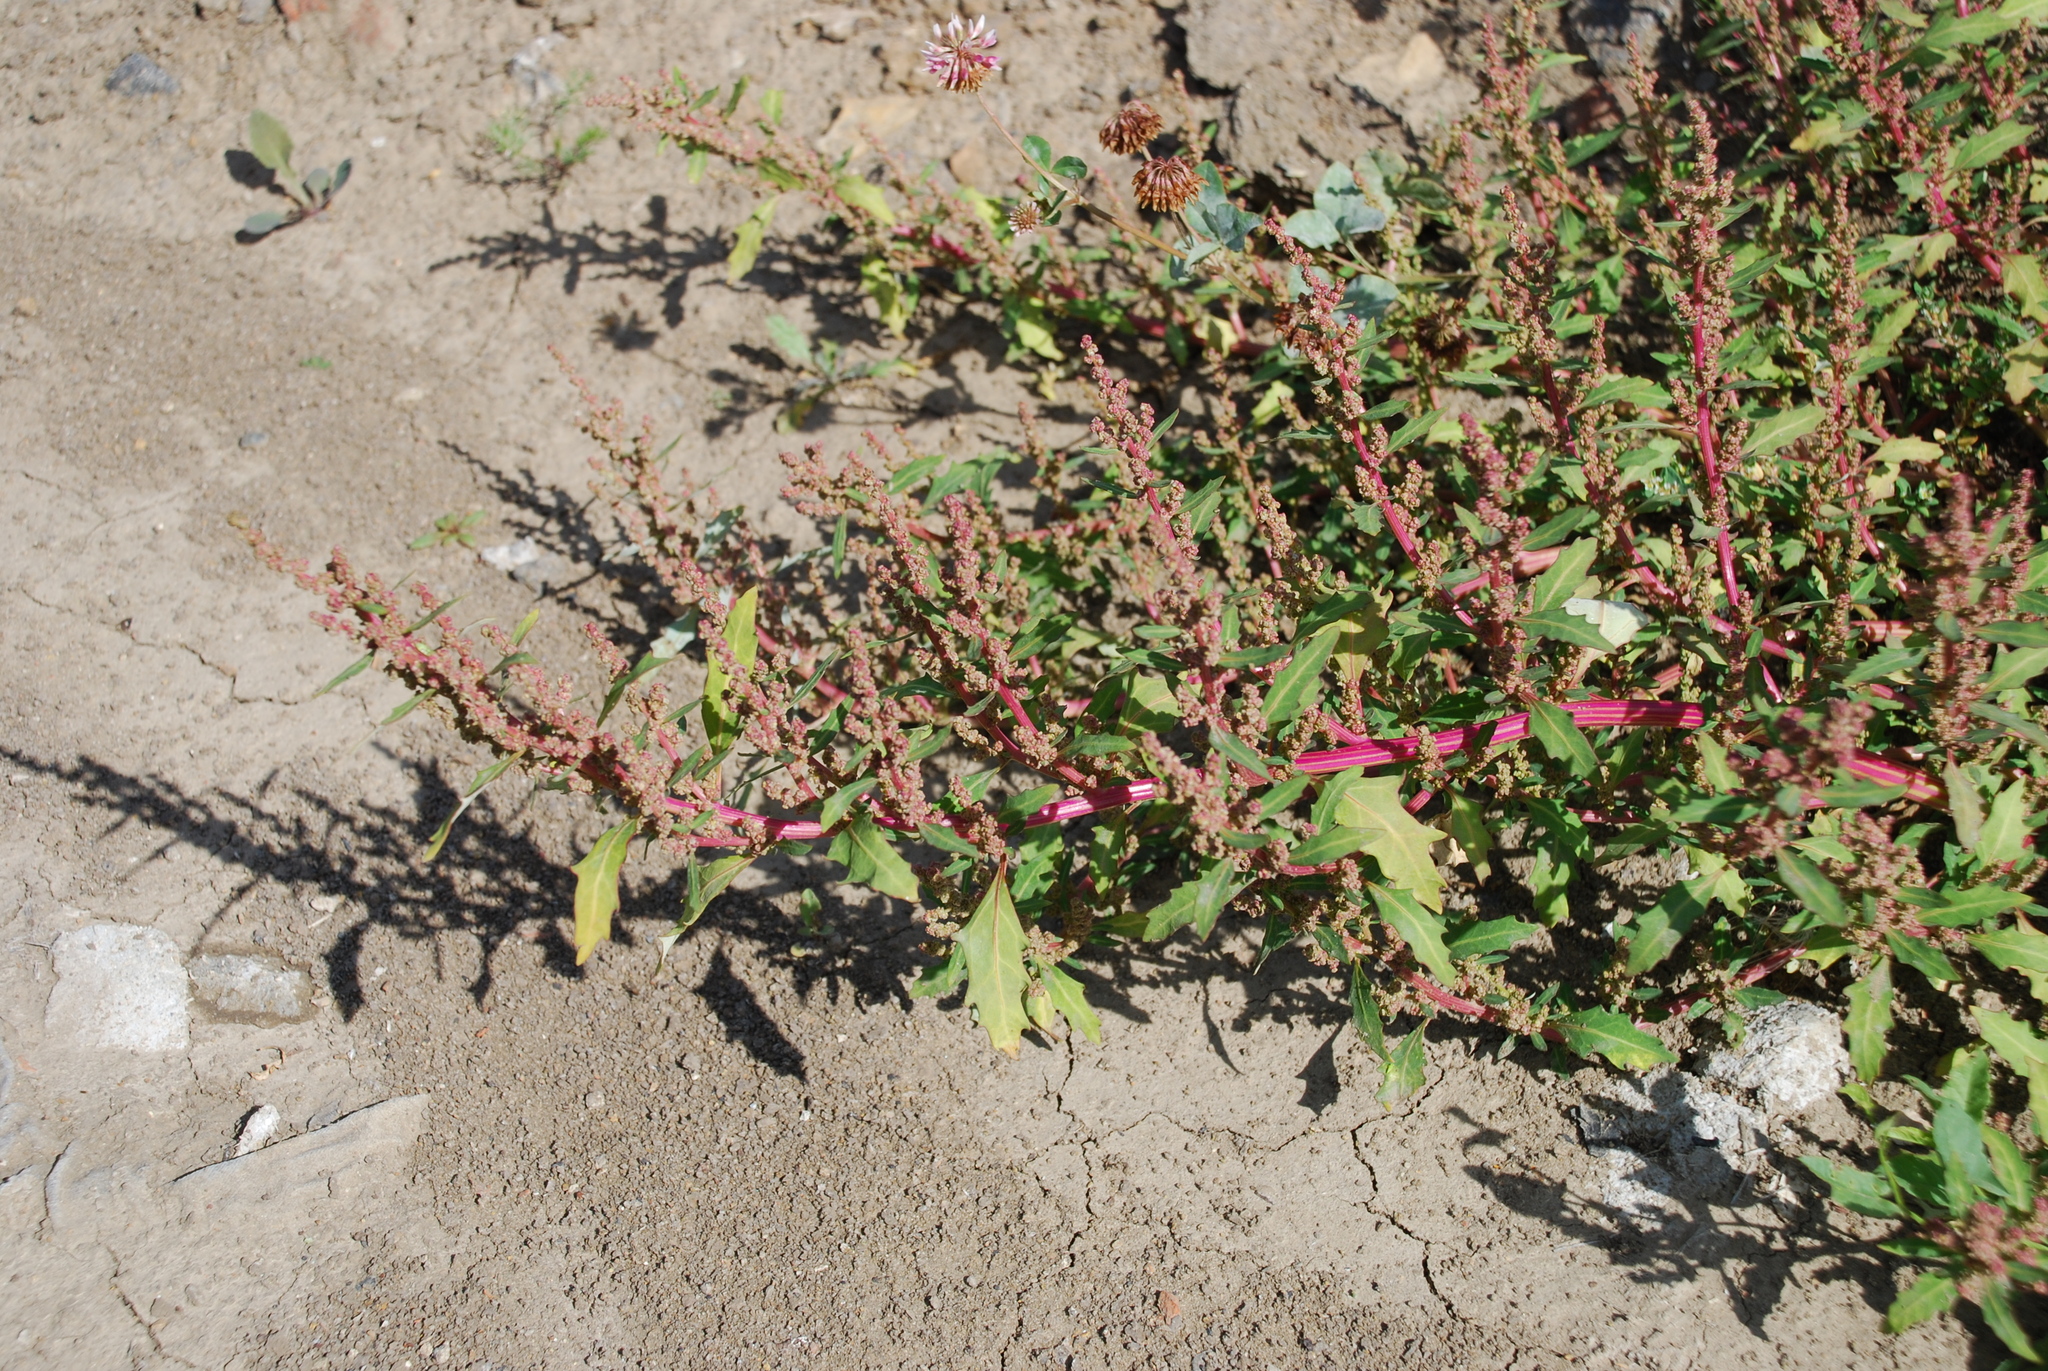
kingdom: Plantae
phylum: Tracheophyta
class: Magnoliopsida
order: Caryophyllales
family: Amaranthaceae
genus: Oxybasis
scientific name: Oxybasis glauca
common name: Glaucous goosefoot
